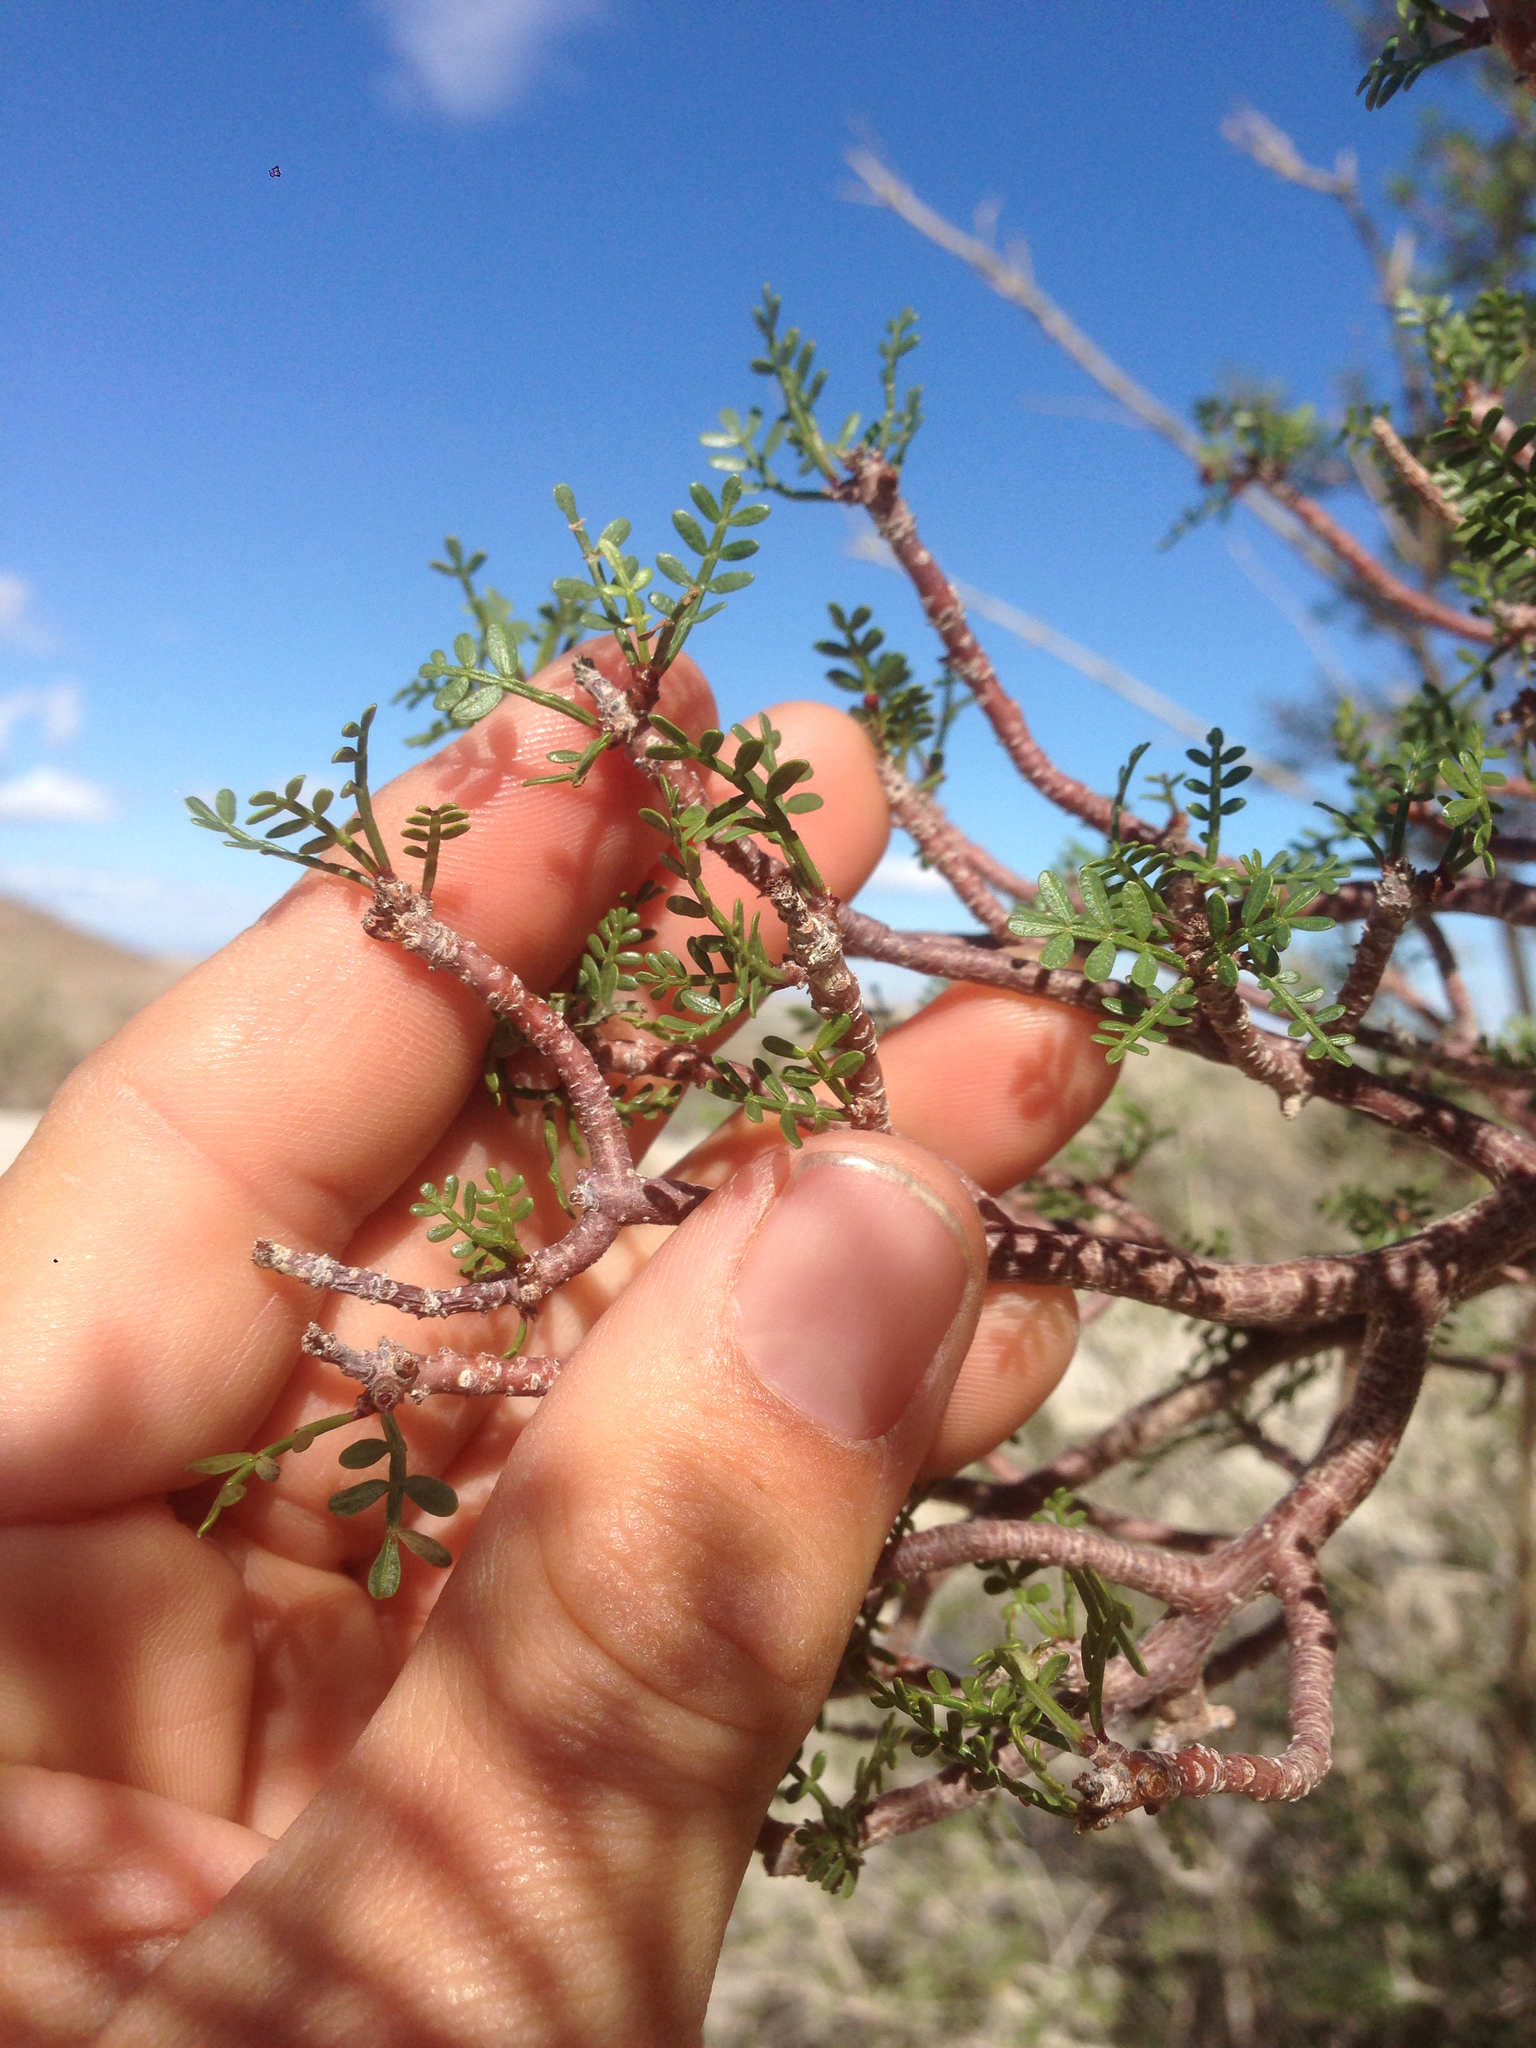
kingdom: Plantae
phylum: Tracheophyta
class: Magnoliopsida
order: Sapindales
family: Burseraceae
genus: Bursera
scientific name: Bursera microphylla
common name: Elephant tree
